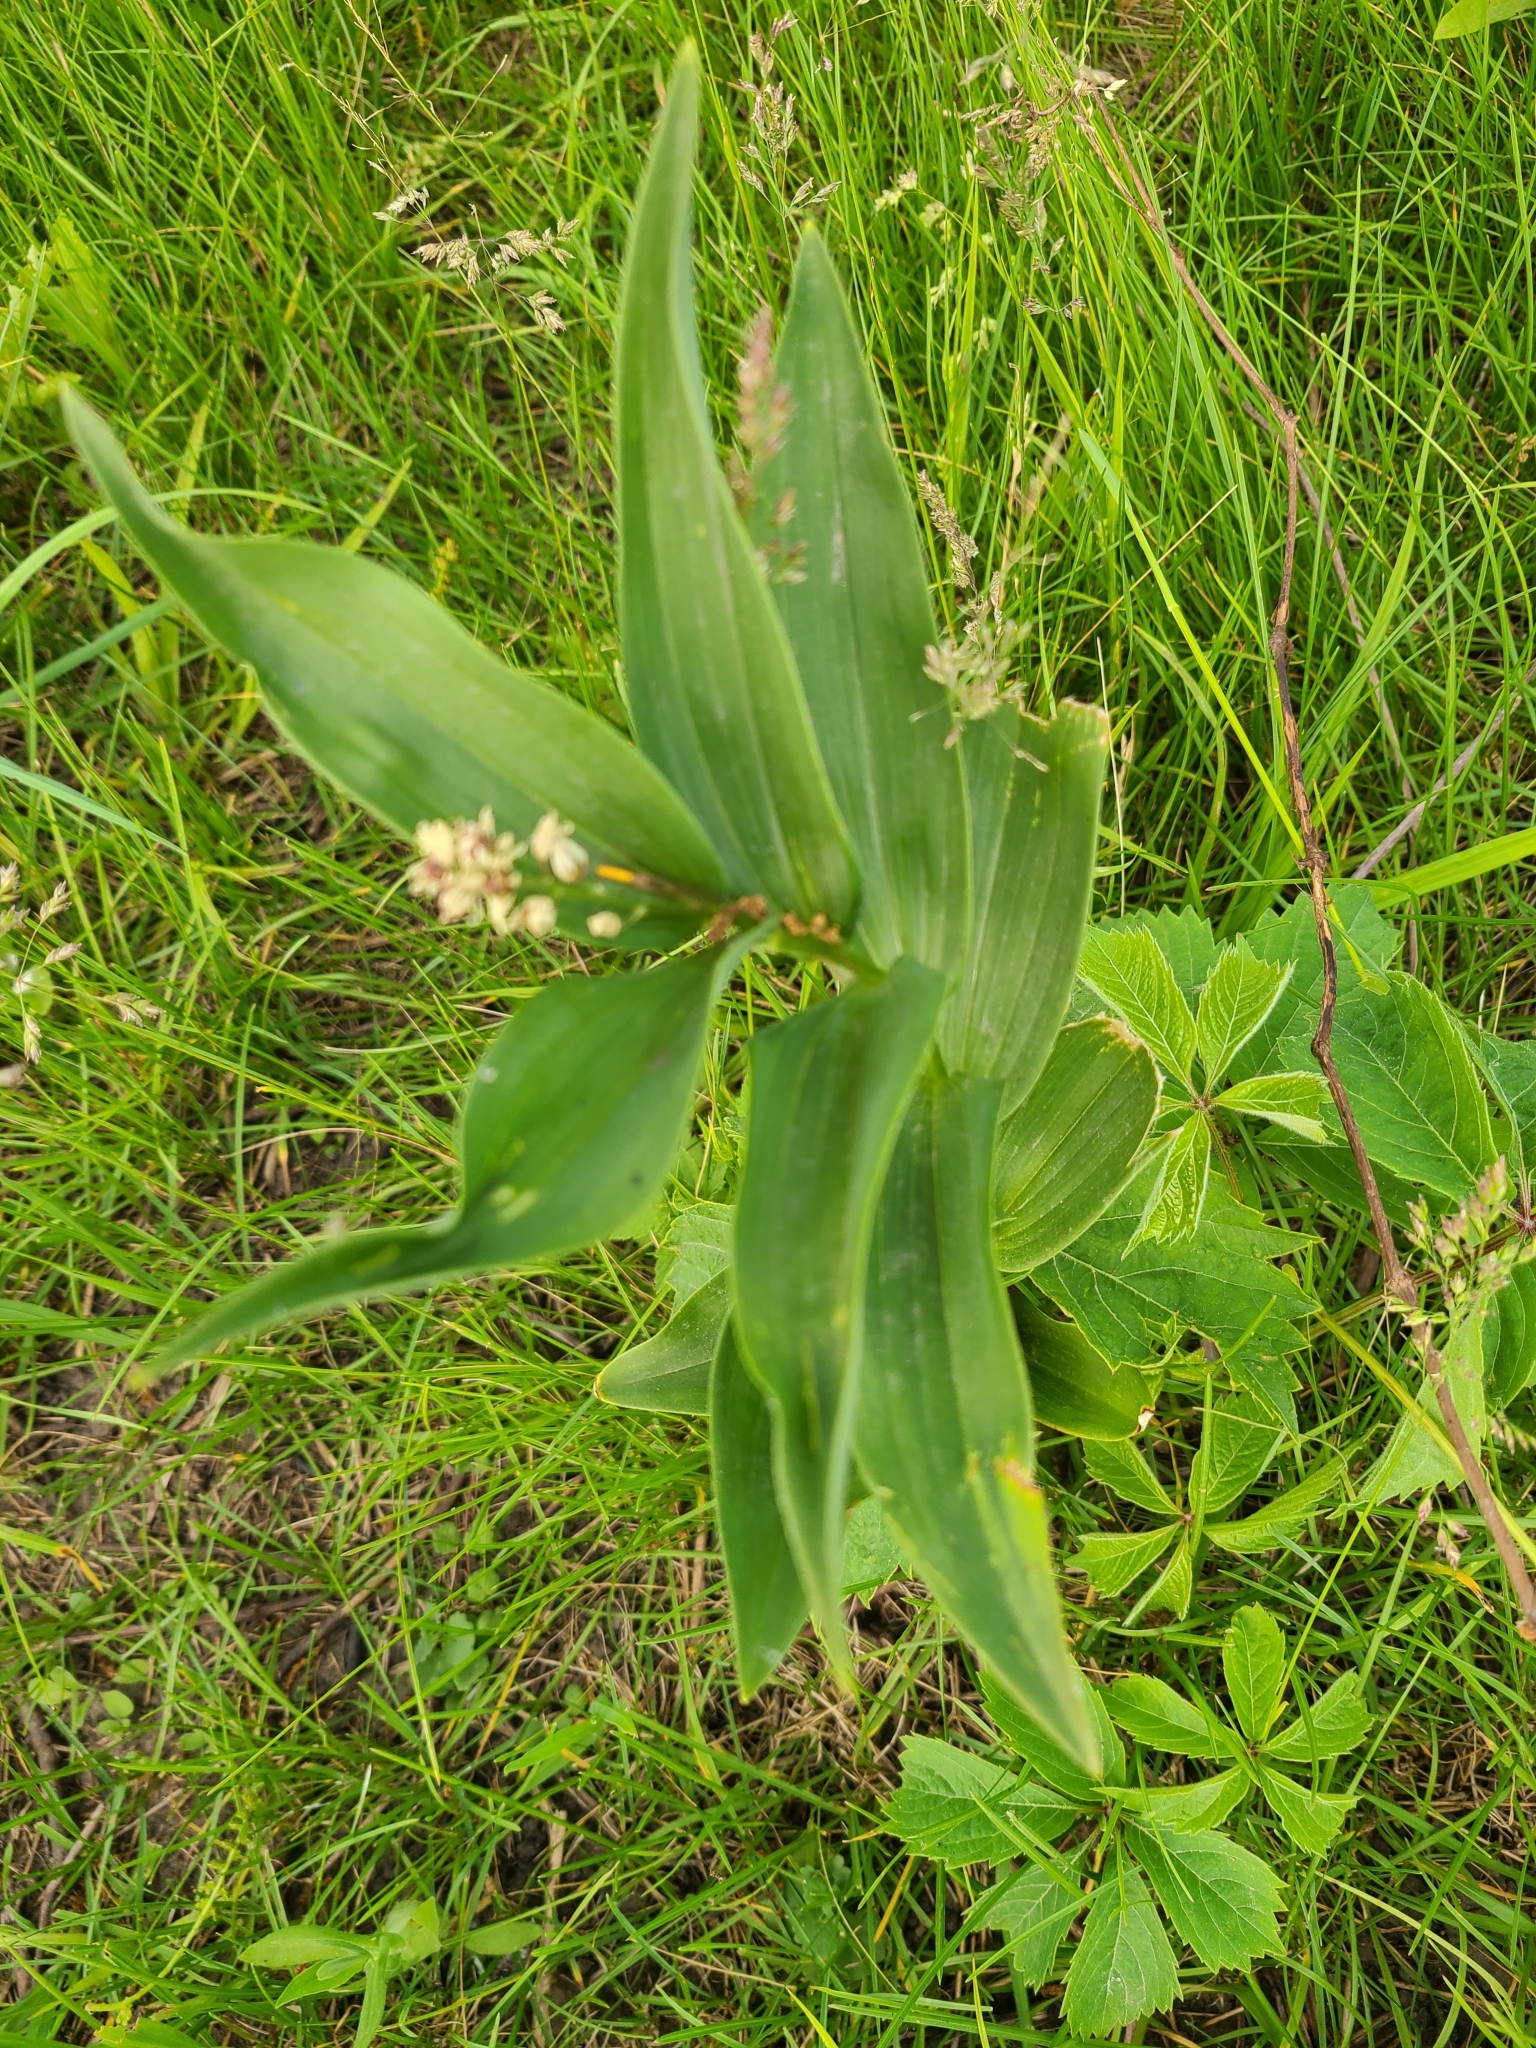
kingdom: Plantae
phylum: Tracheophyta
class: Liliopsida
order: Asparagales
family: Asparagaceae
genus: Maianthemum
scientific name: Maianthemum stellatum
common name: Little false solomon's seal
